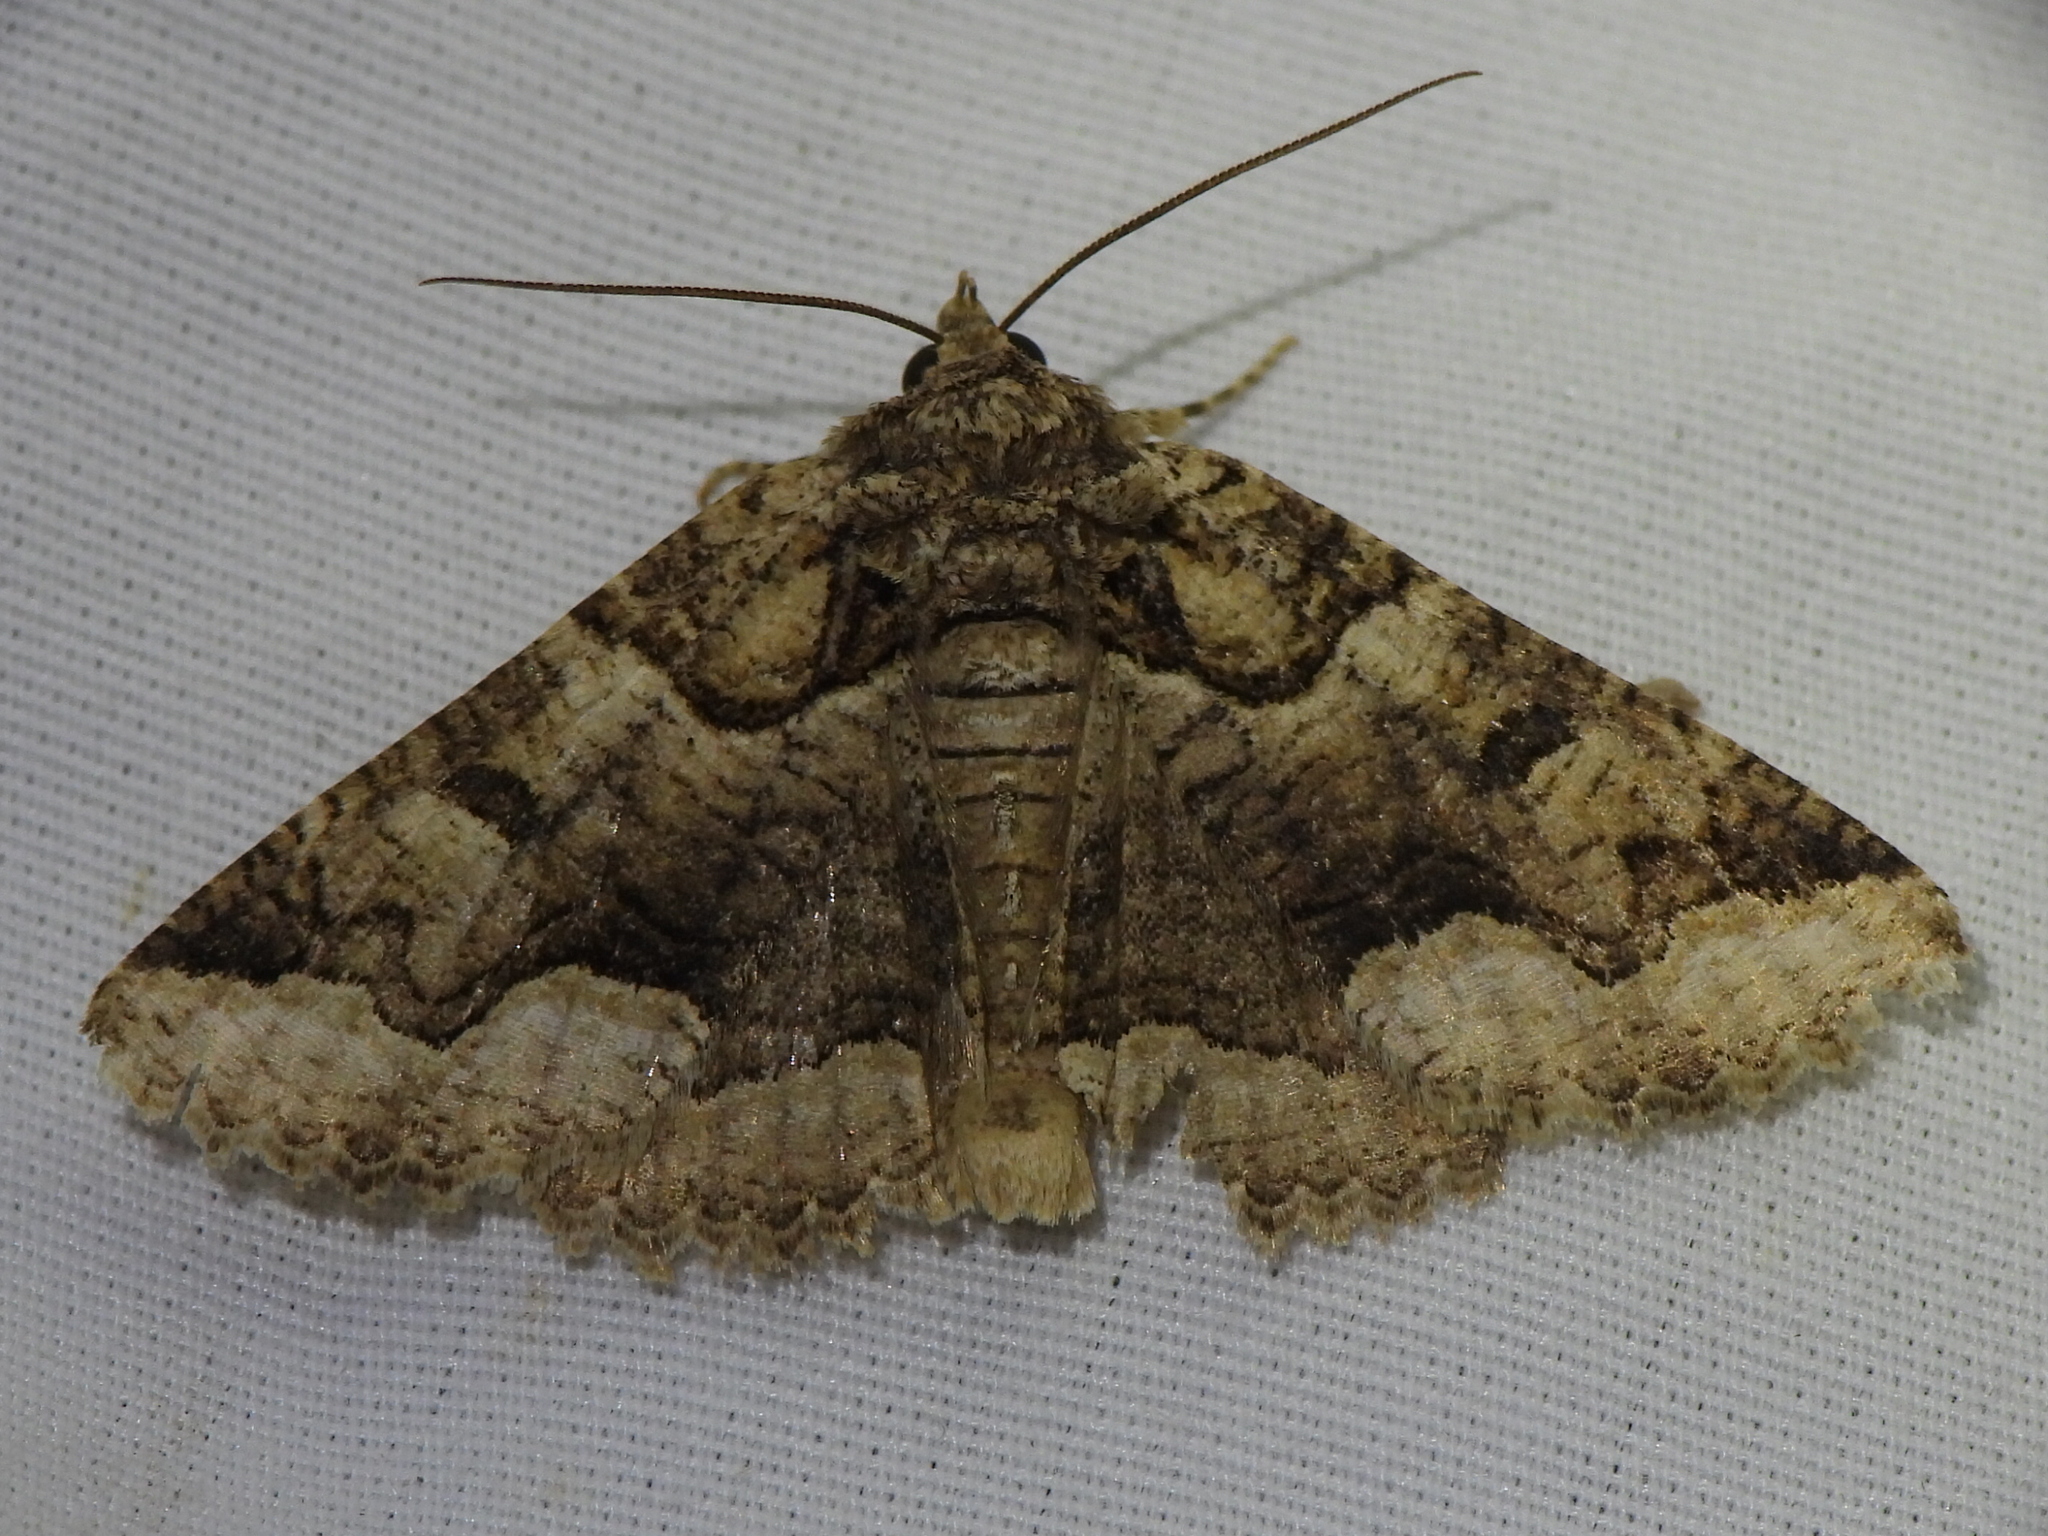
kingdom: Animalia
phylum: Arthropoda
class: Insecta
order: Lepidoptera
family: Erebidae
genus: Zale
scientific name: Zale calycanthata
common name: Double-banded zale
